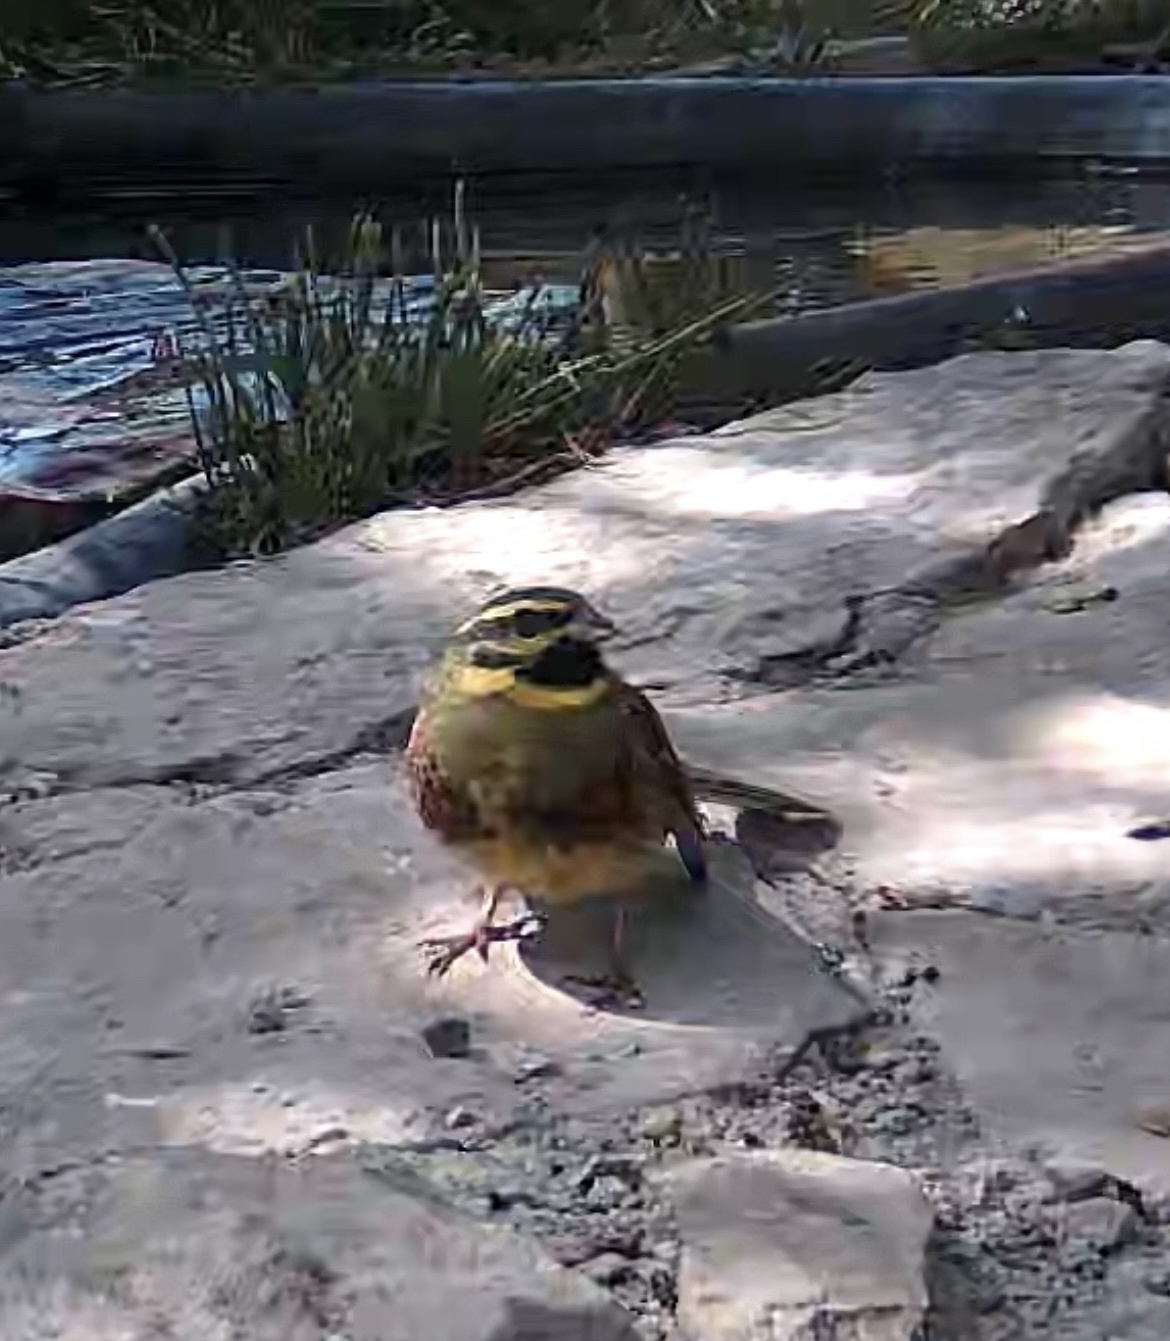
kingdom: Animalia
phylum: Chordata
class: Aves
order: Passeriformes
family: Emberizidae
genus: Emberiza
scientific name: Emberiza cirlus
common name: Cirl bunting
